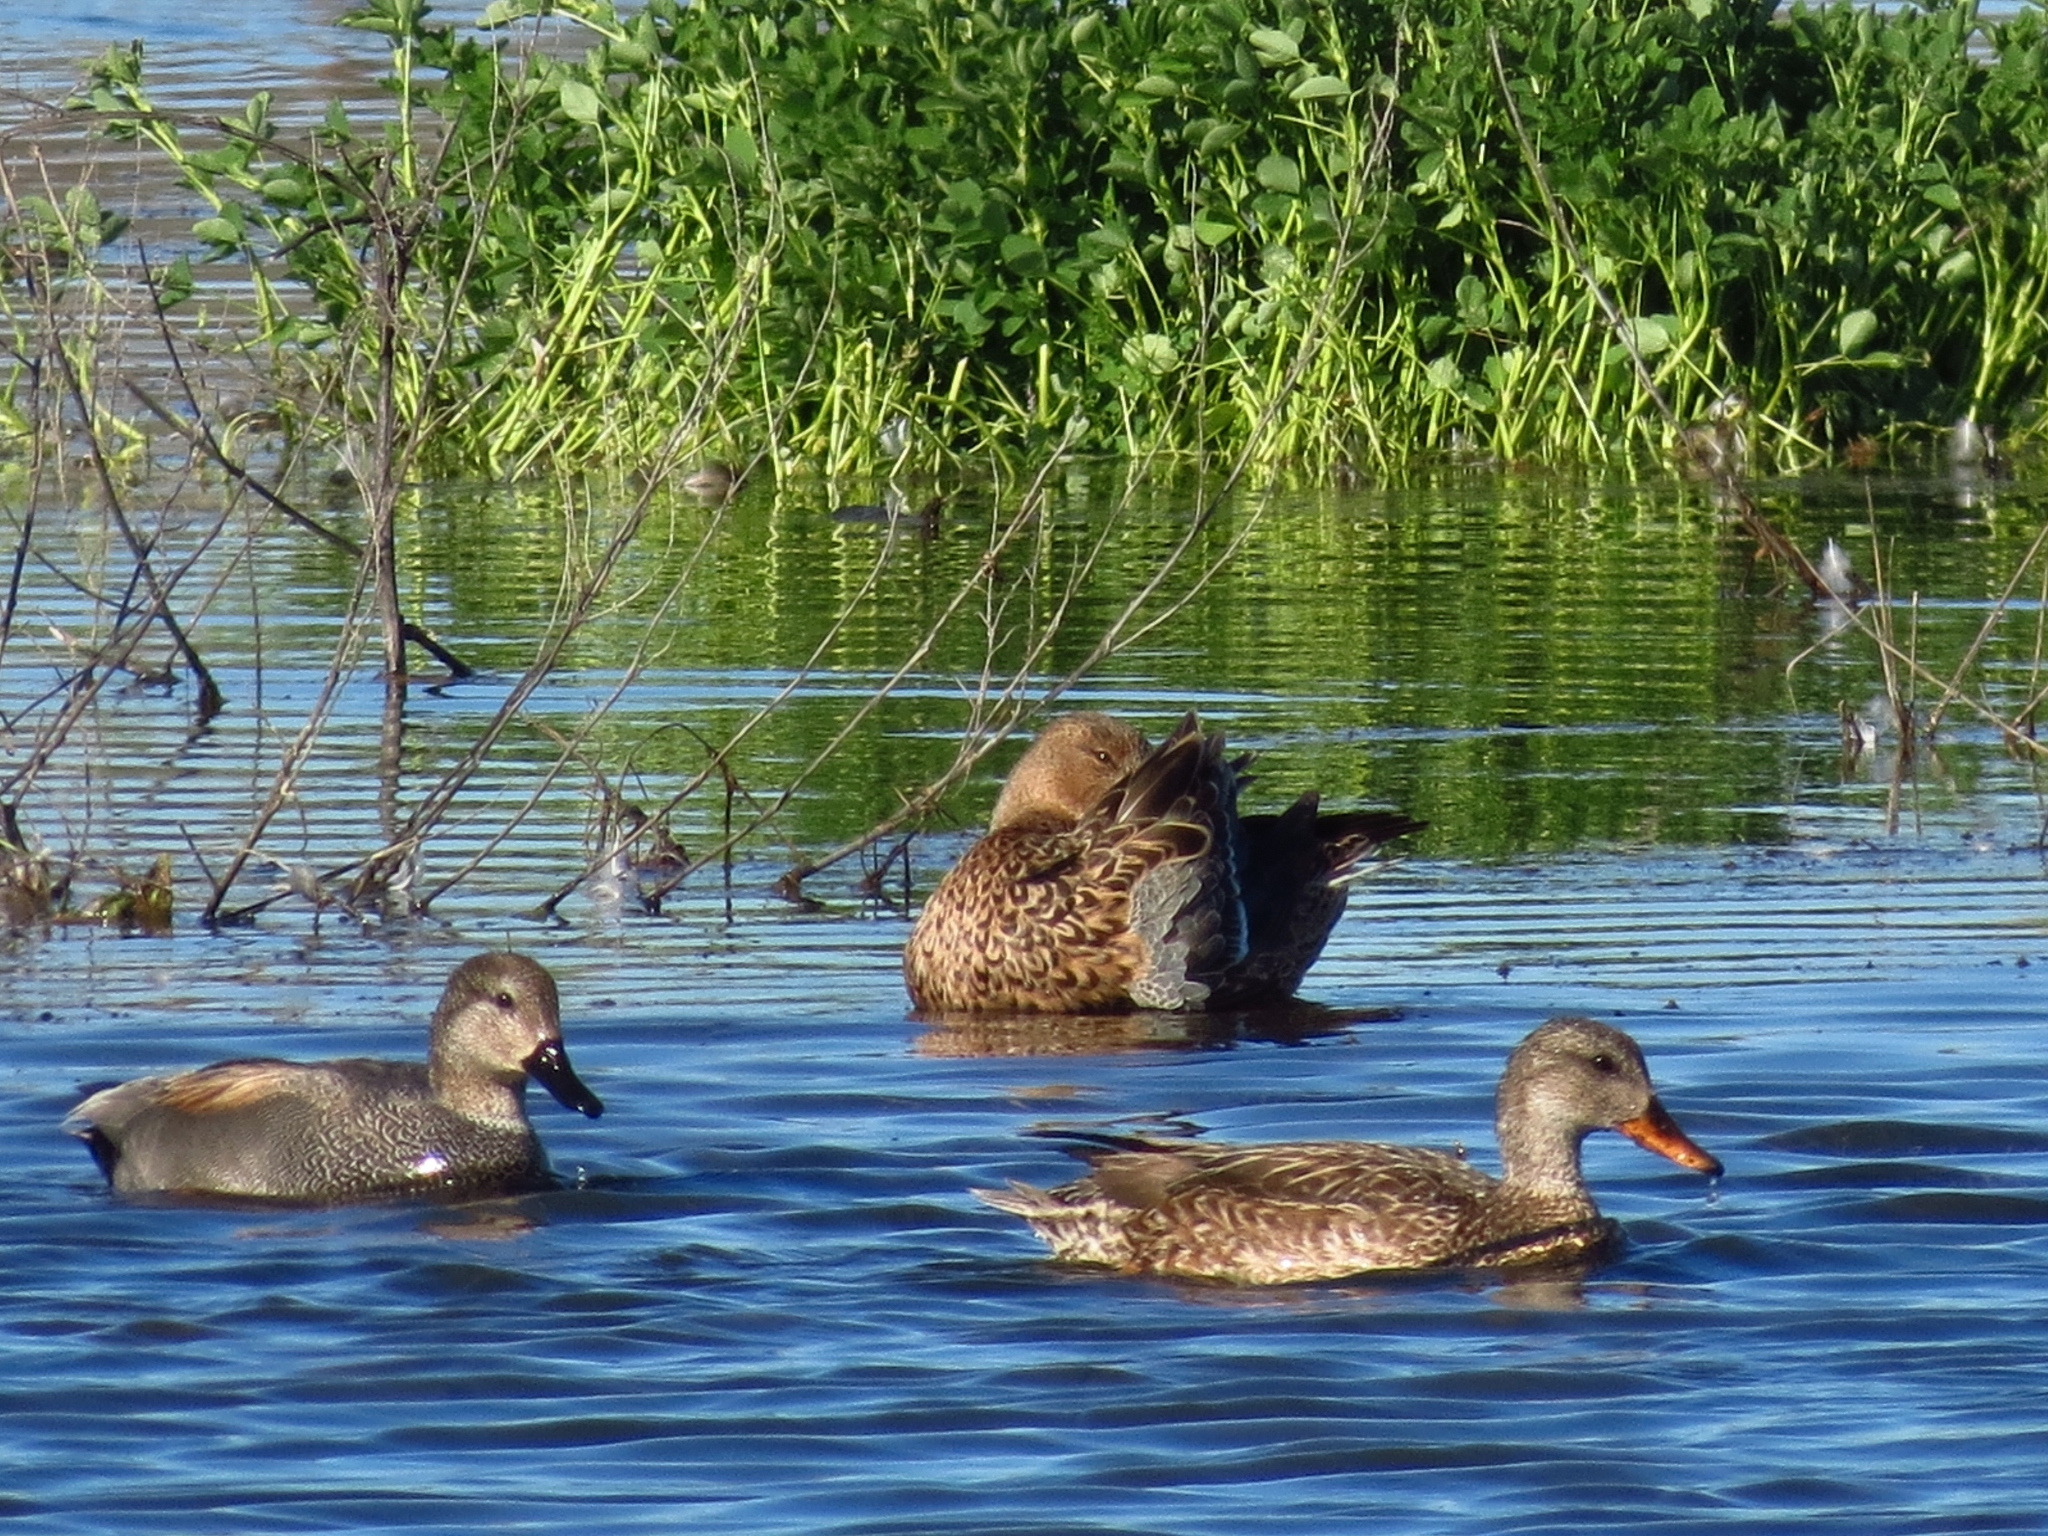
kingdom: Animalia
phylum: Chordata
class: Aves
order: Anseriformes
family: Anatidae
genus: Mareca
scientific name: Mareca strepera
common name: Gadwall
